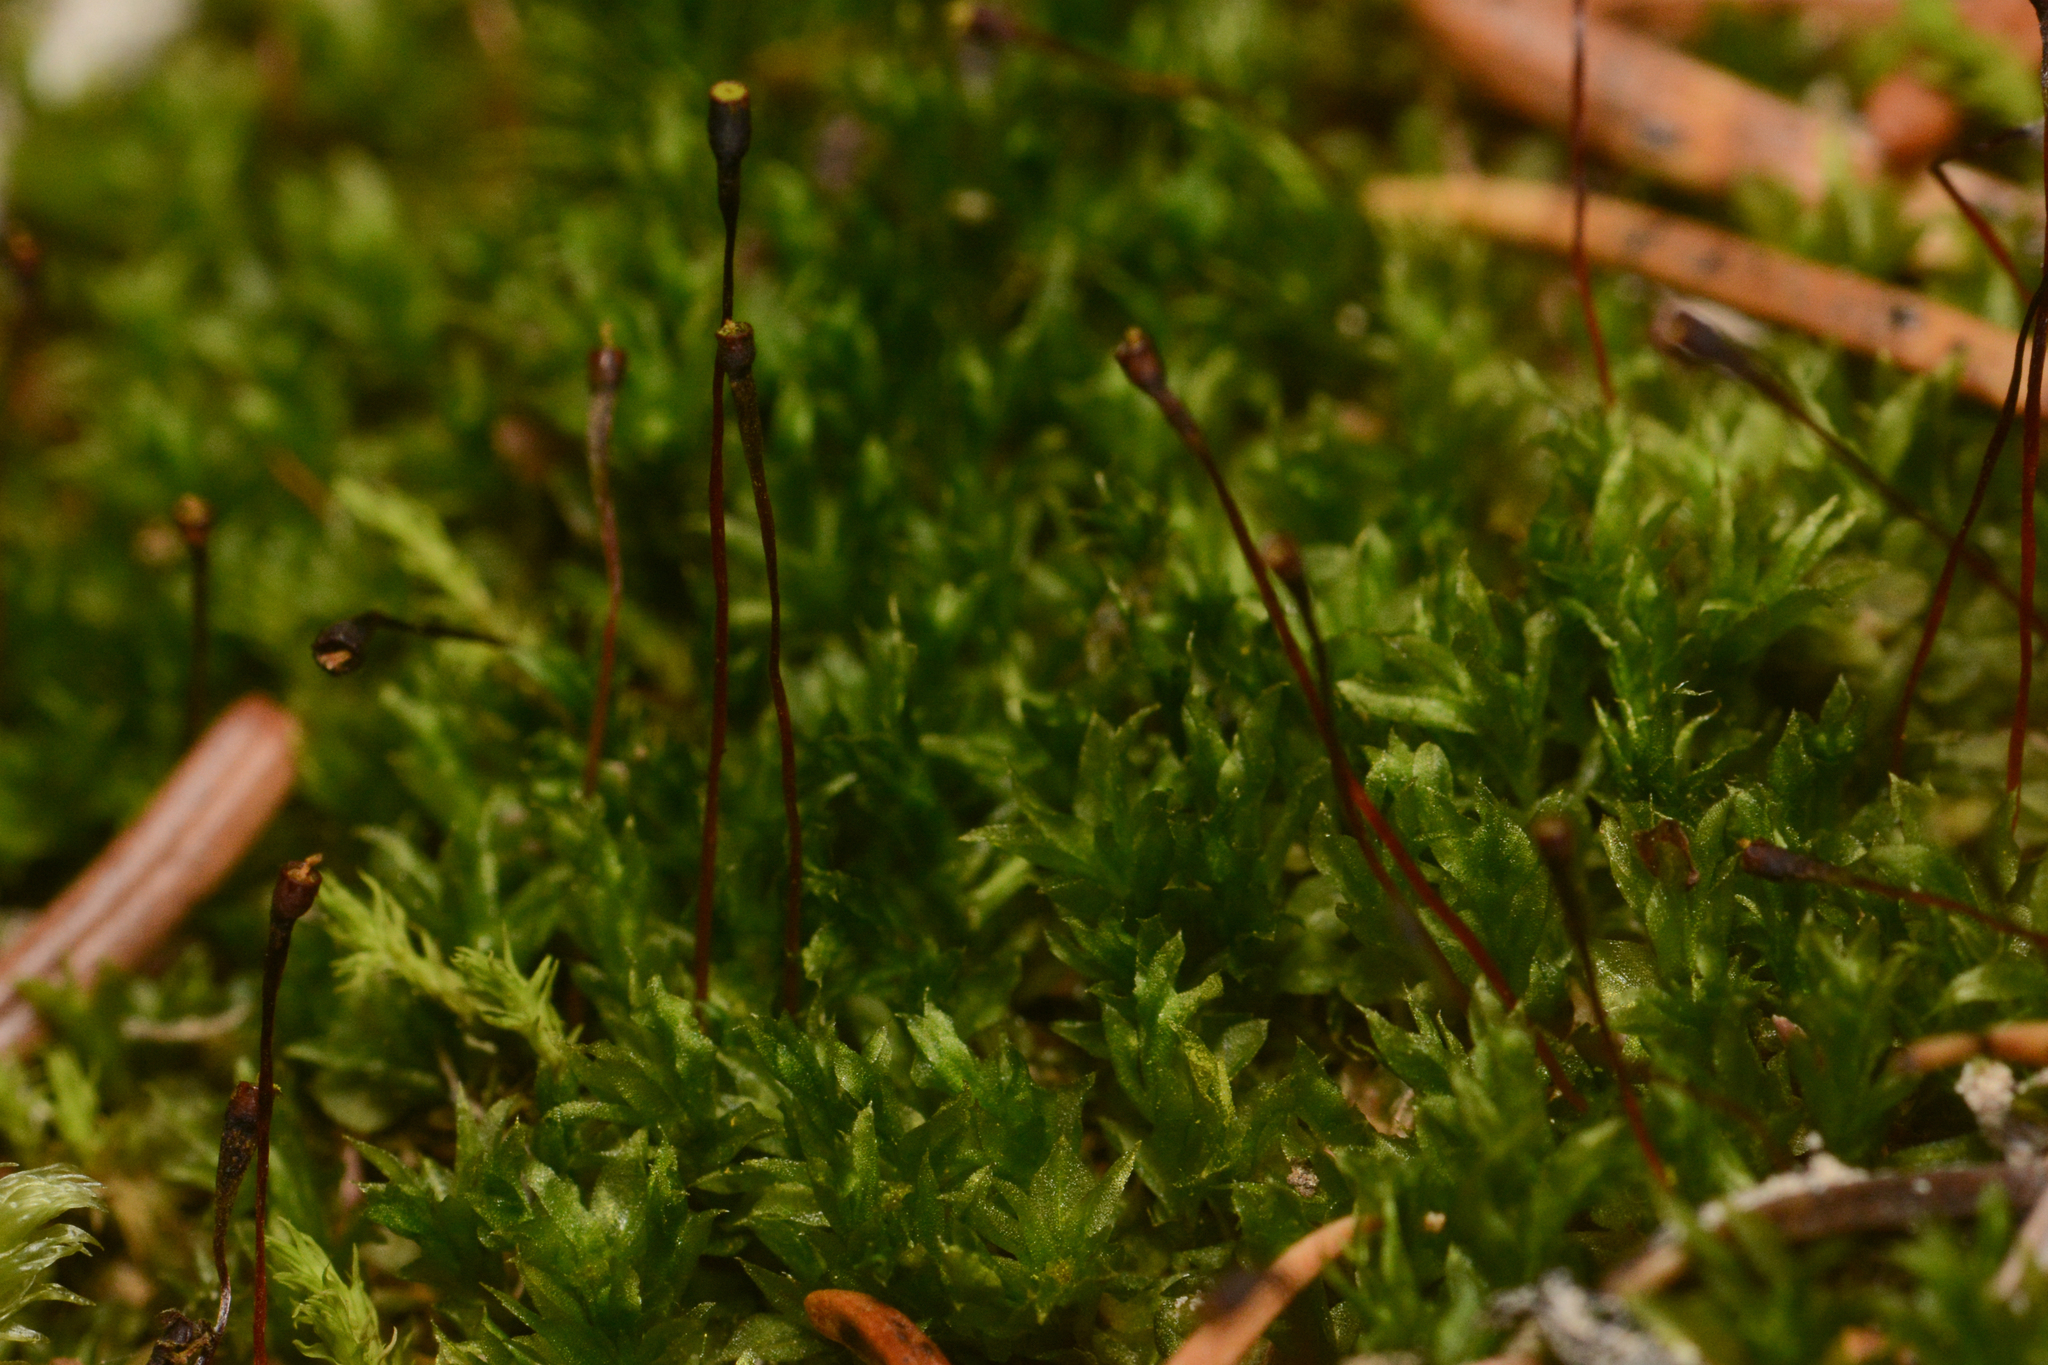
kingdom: Plantae
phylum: Bryophyta
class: Bryopsida
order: Splachnales
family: Splachnaceae
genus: Tayloria
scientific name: Tayloria serrata
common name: Serrate trumpet moss
